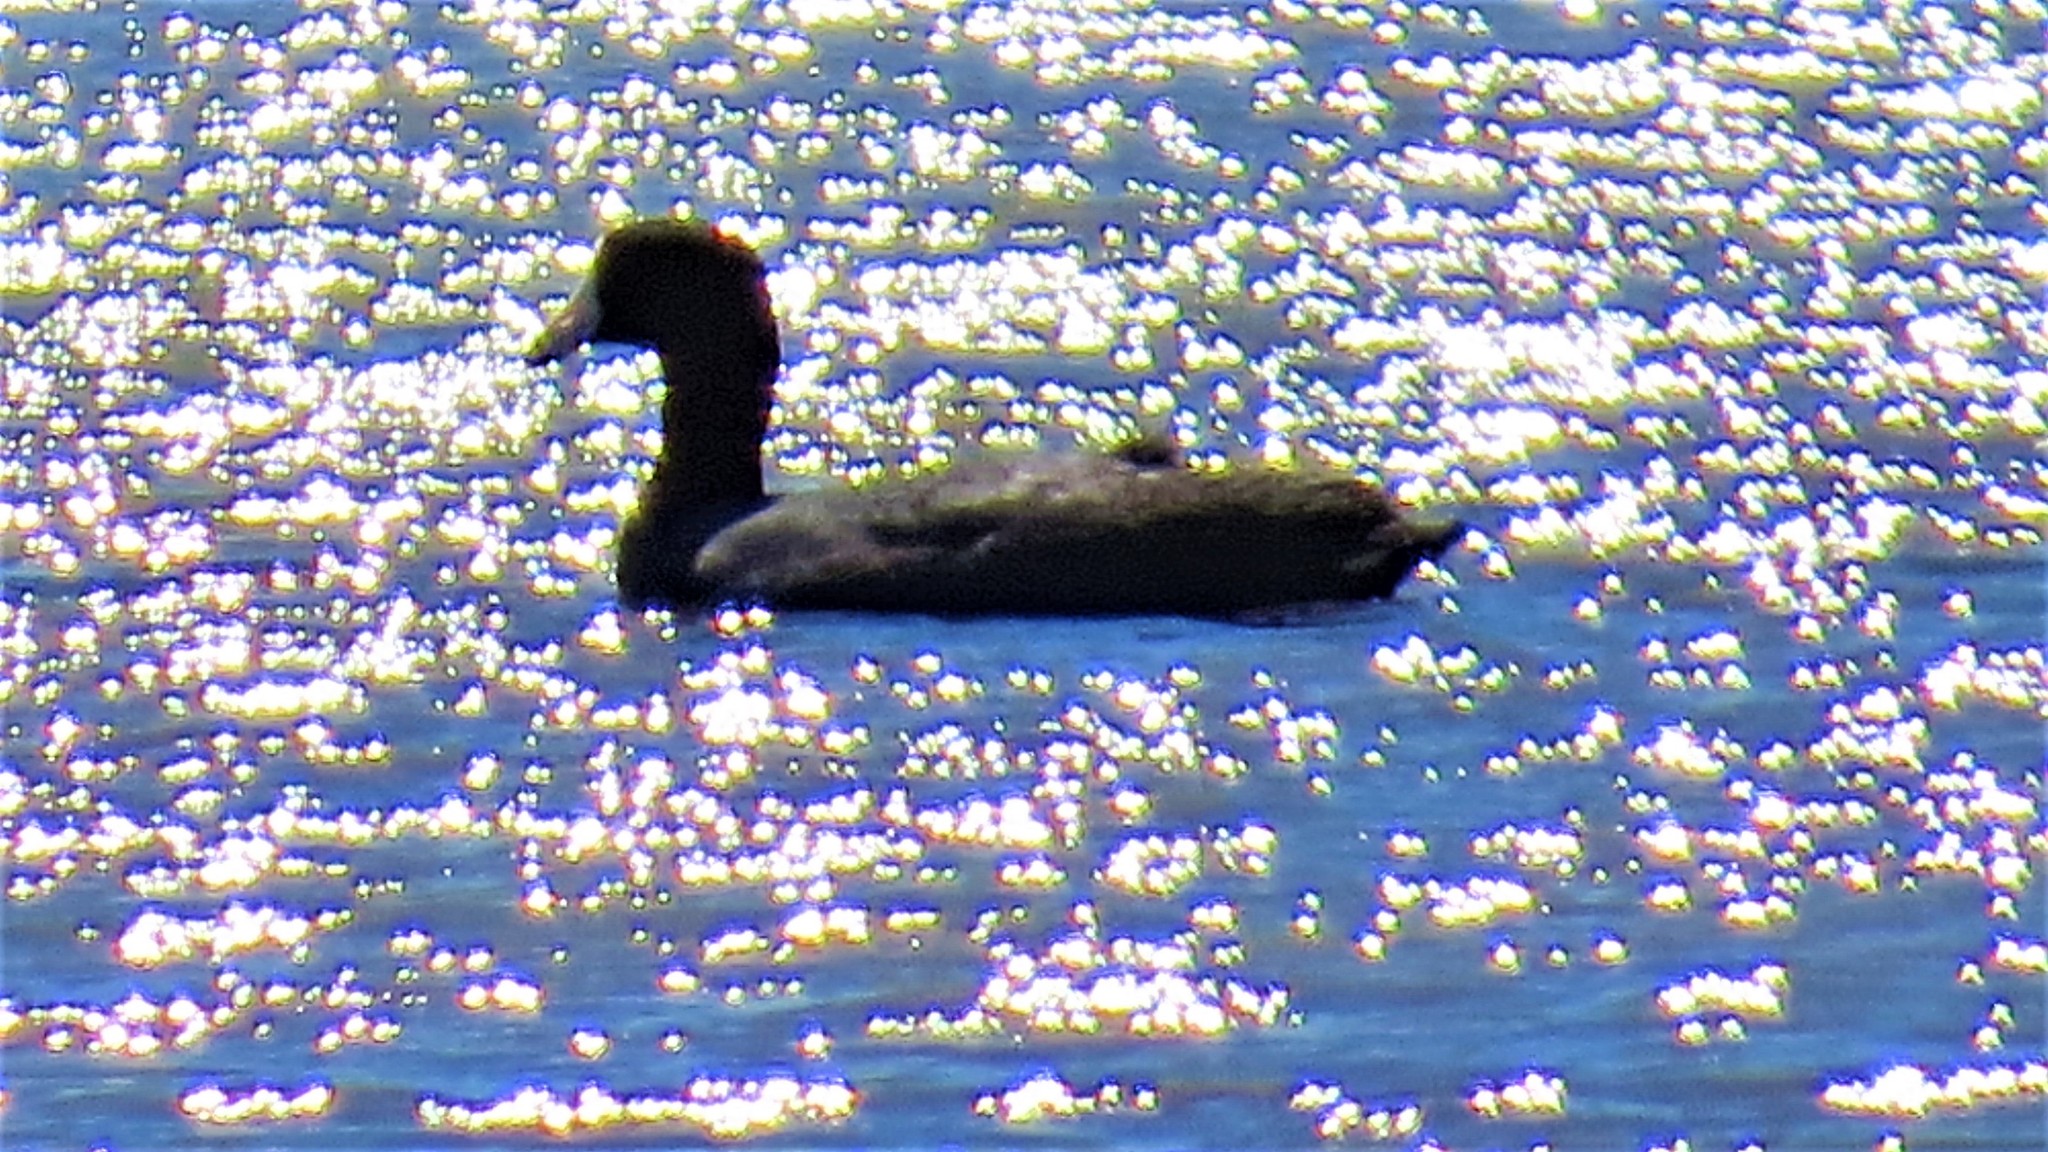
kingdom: Animalia
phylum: Chordata
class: Aves
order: Gruiformes
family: Rallidae
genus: Fulica
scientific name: Fulica americana
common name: American coot
